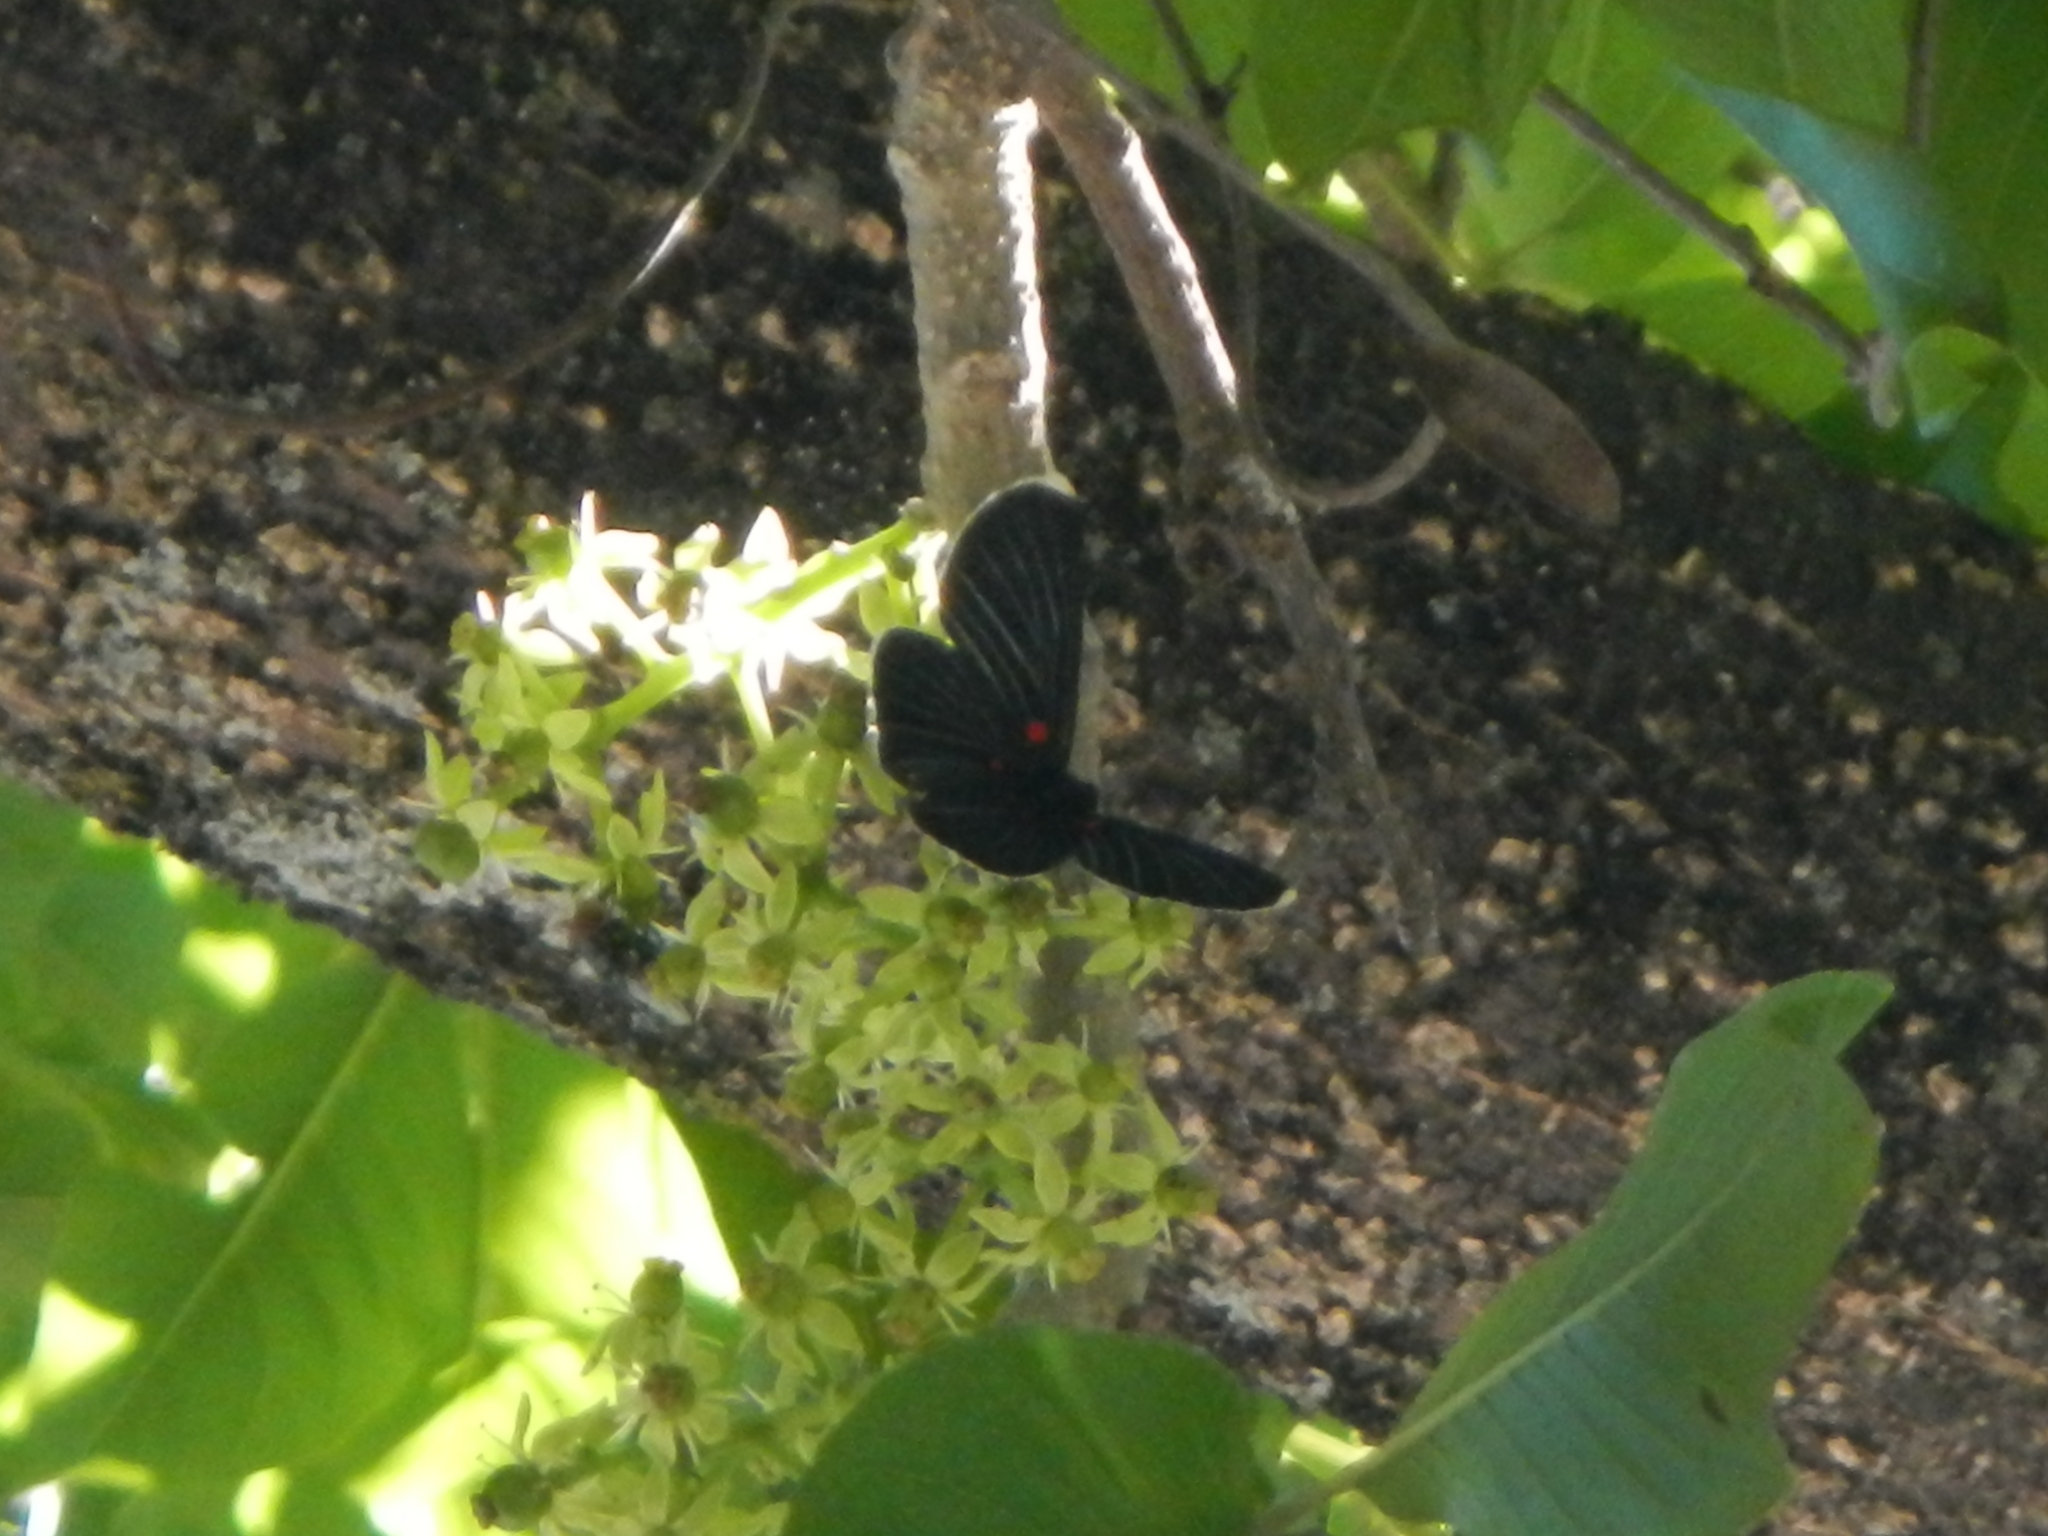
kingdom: Animalia
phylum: Arthropoda
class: Insecta
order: Lepidoptera
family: Lycaenidae
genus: Melanis
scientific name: Melanis
